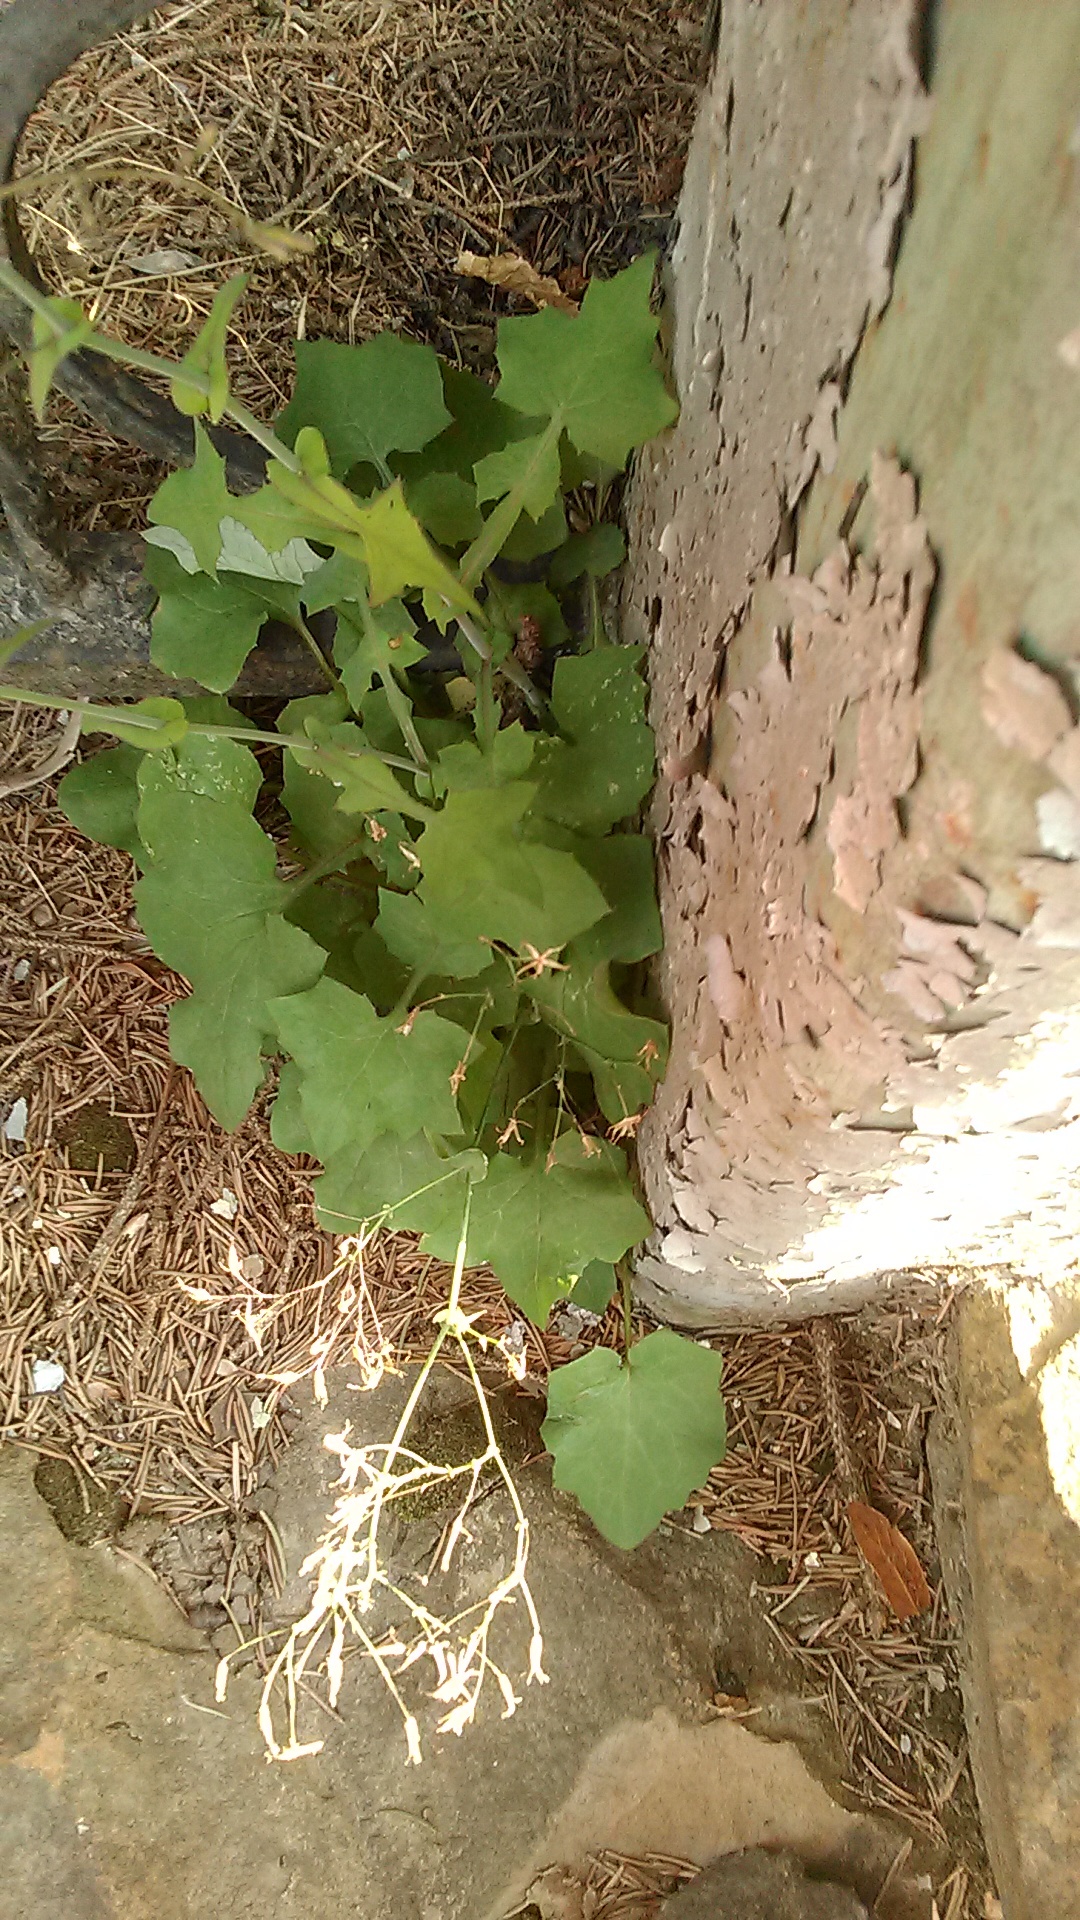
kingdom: Plantae
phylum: Tracheophyta
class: Magnoliopsida
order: Asterales
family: Asteraceae
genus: Mycelis
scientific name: Mycelis muralis
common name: Wall lettuce
